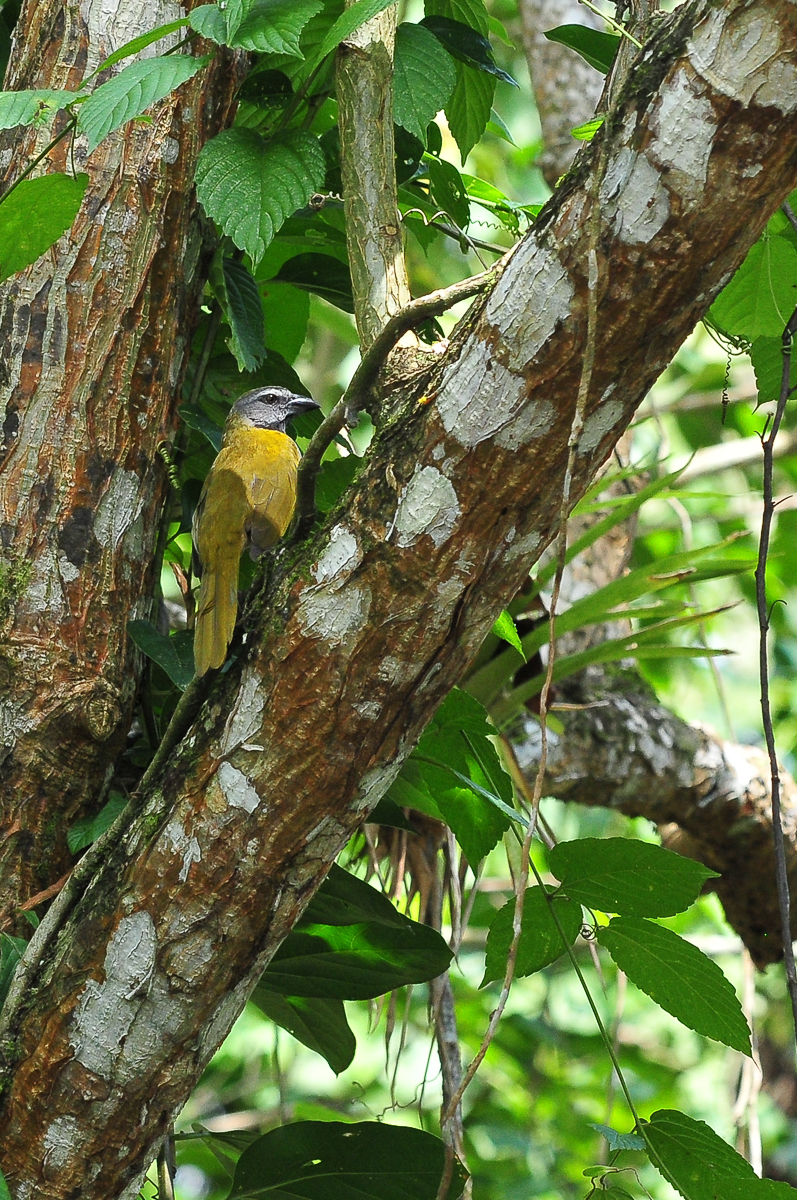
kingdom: Animalia
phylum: Chordata
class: Aves
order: Passeriformes
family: Thraupidae
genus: Saltator
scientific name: Saltator maximus
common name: Buff-throated saltator
